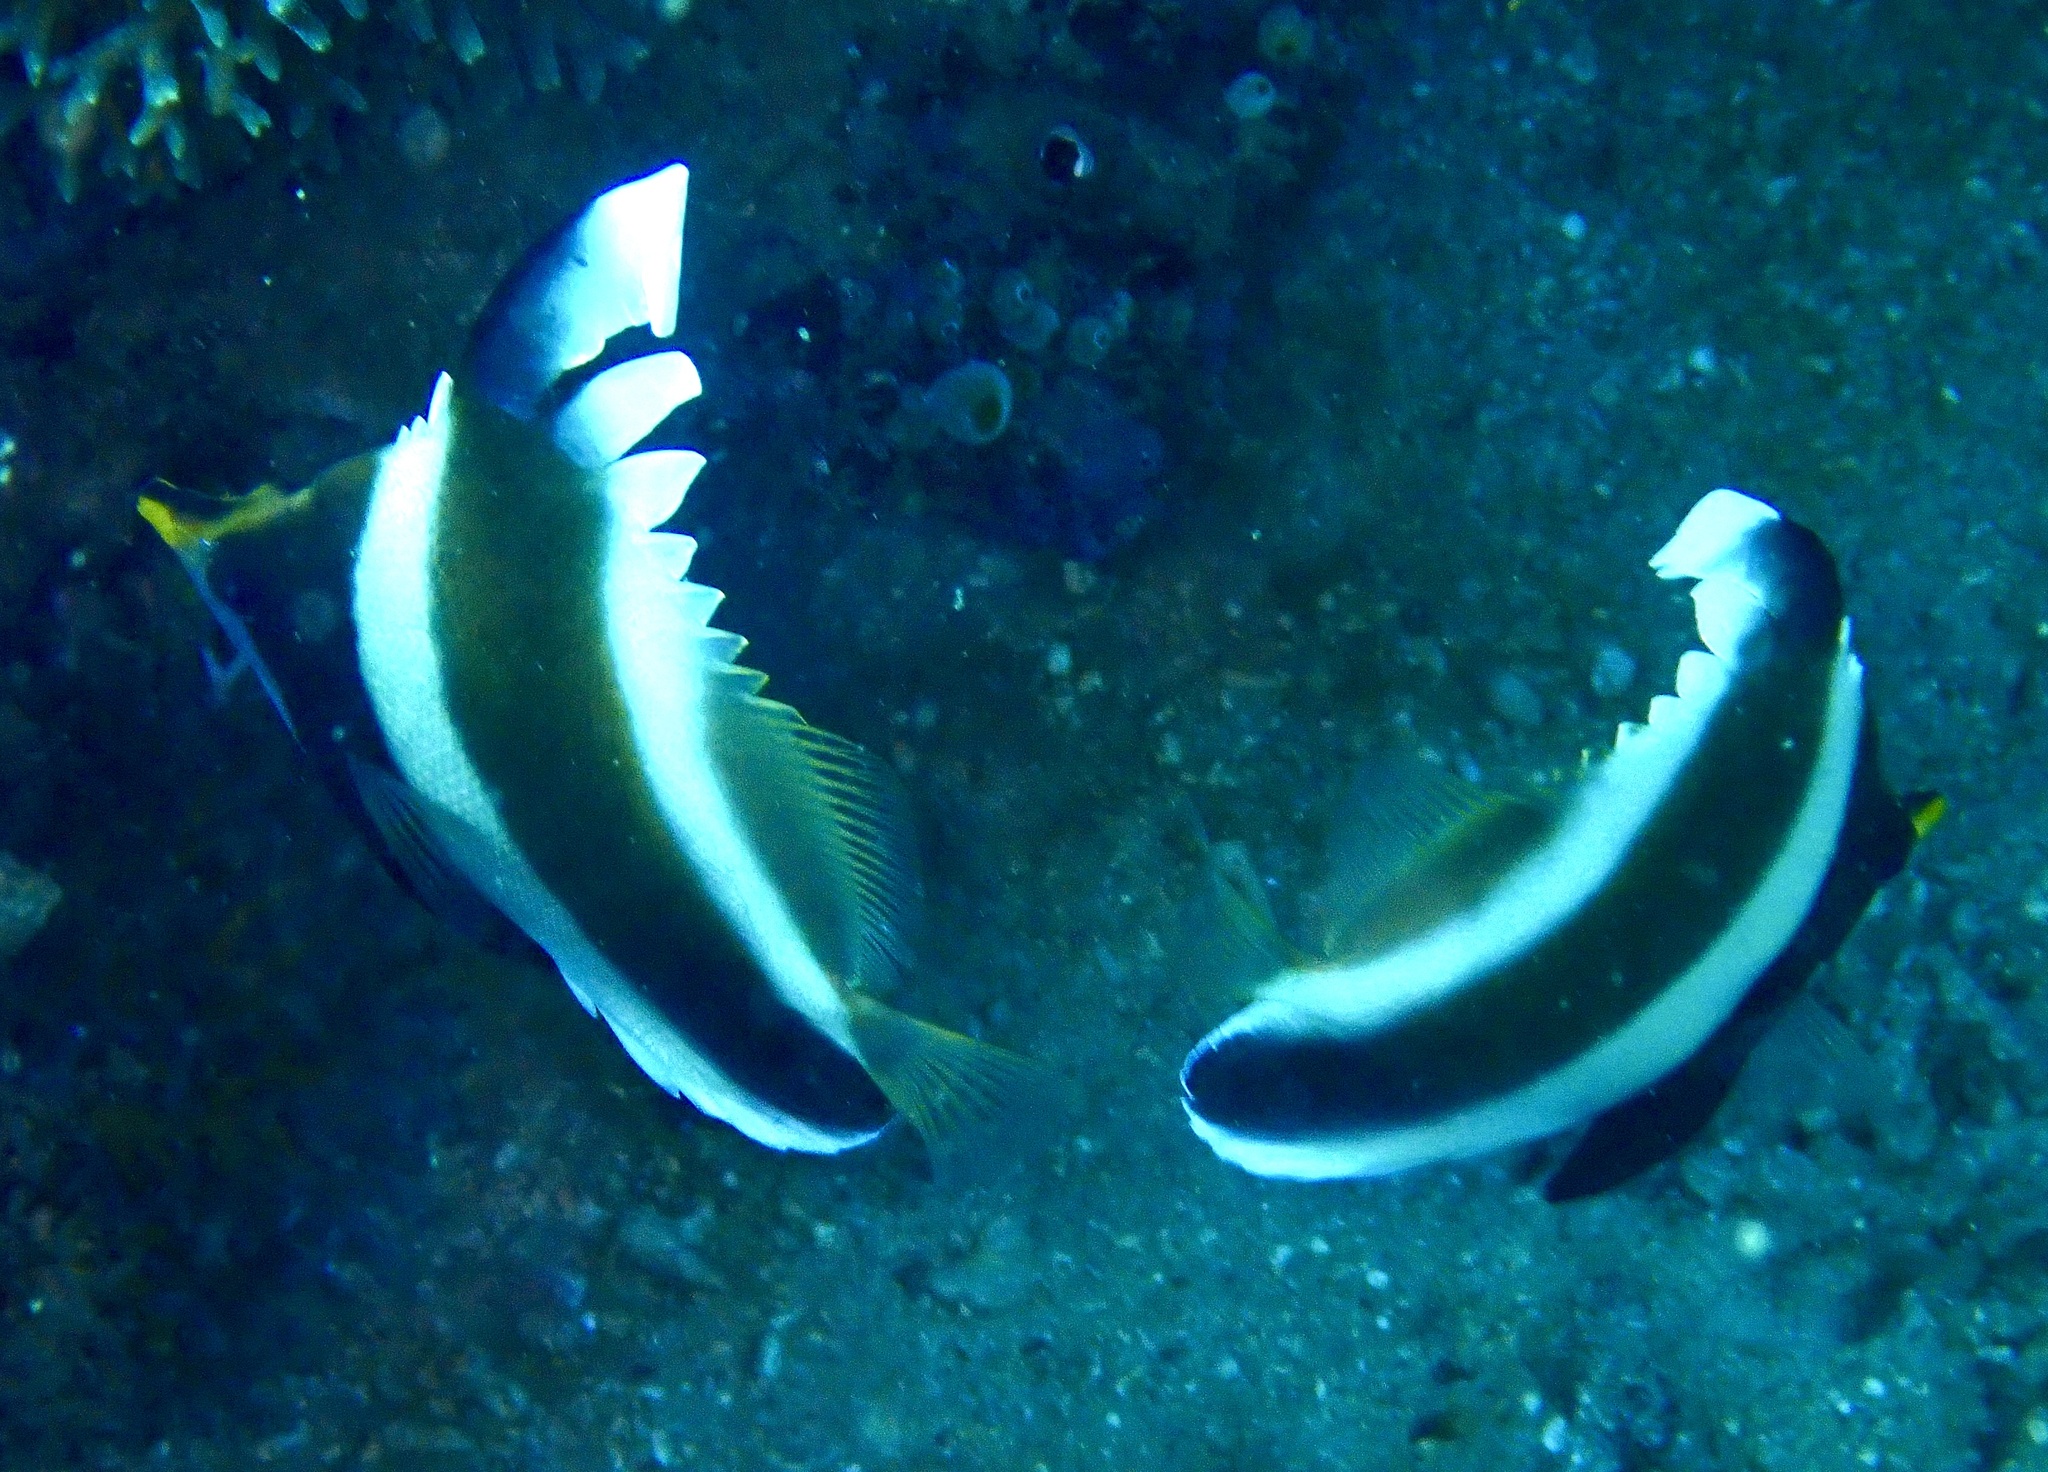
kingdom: Animalia
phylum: Chordata
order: Perciformes
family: Chaetodontidae
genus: Heniochus
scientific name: Heniochus chrysostomus
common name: Horned bannerfish
